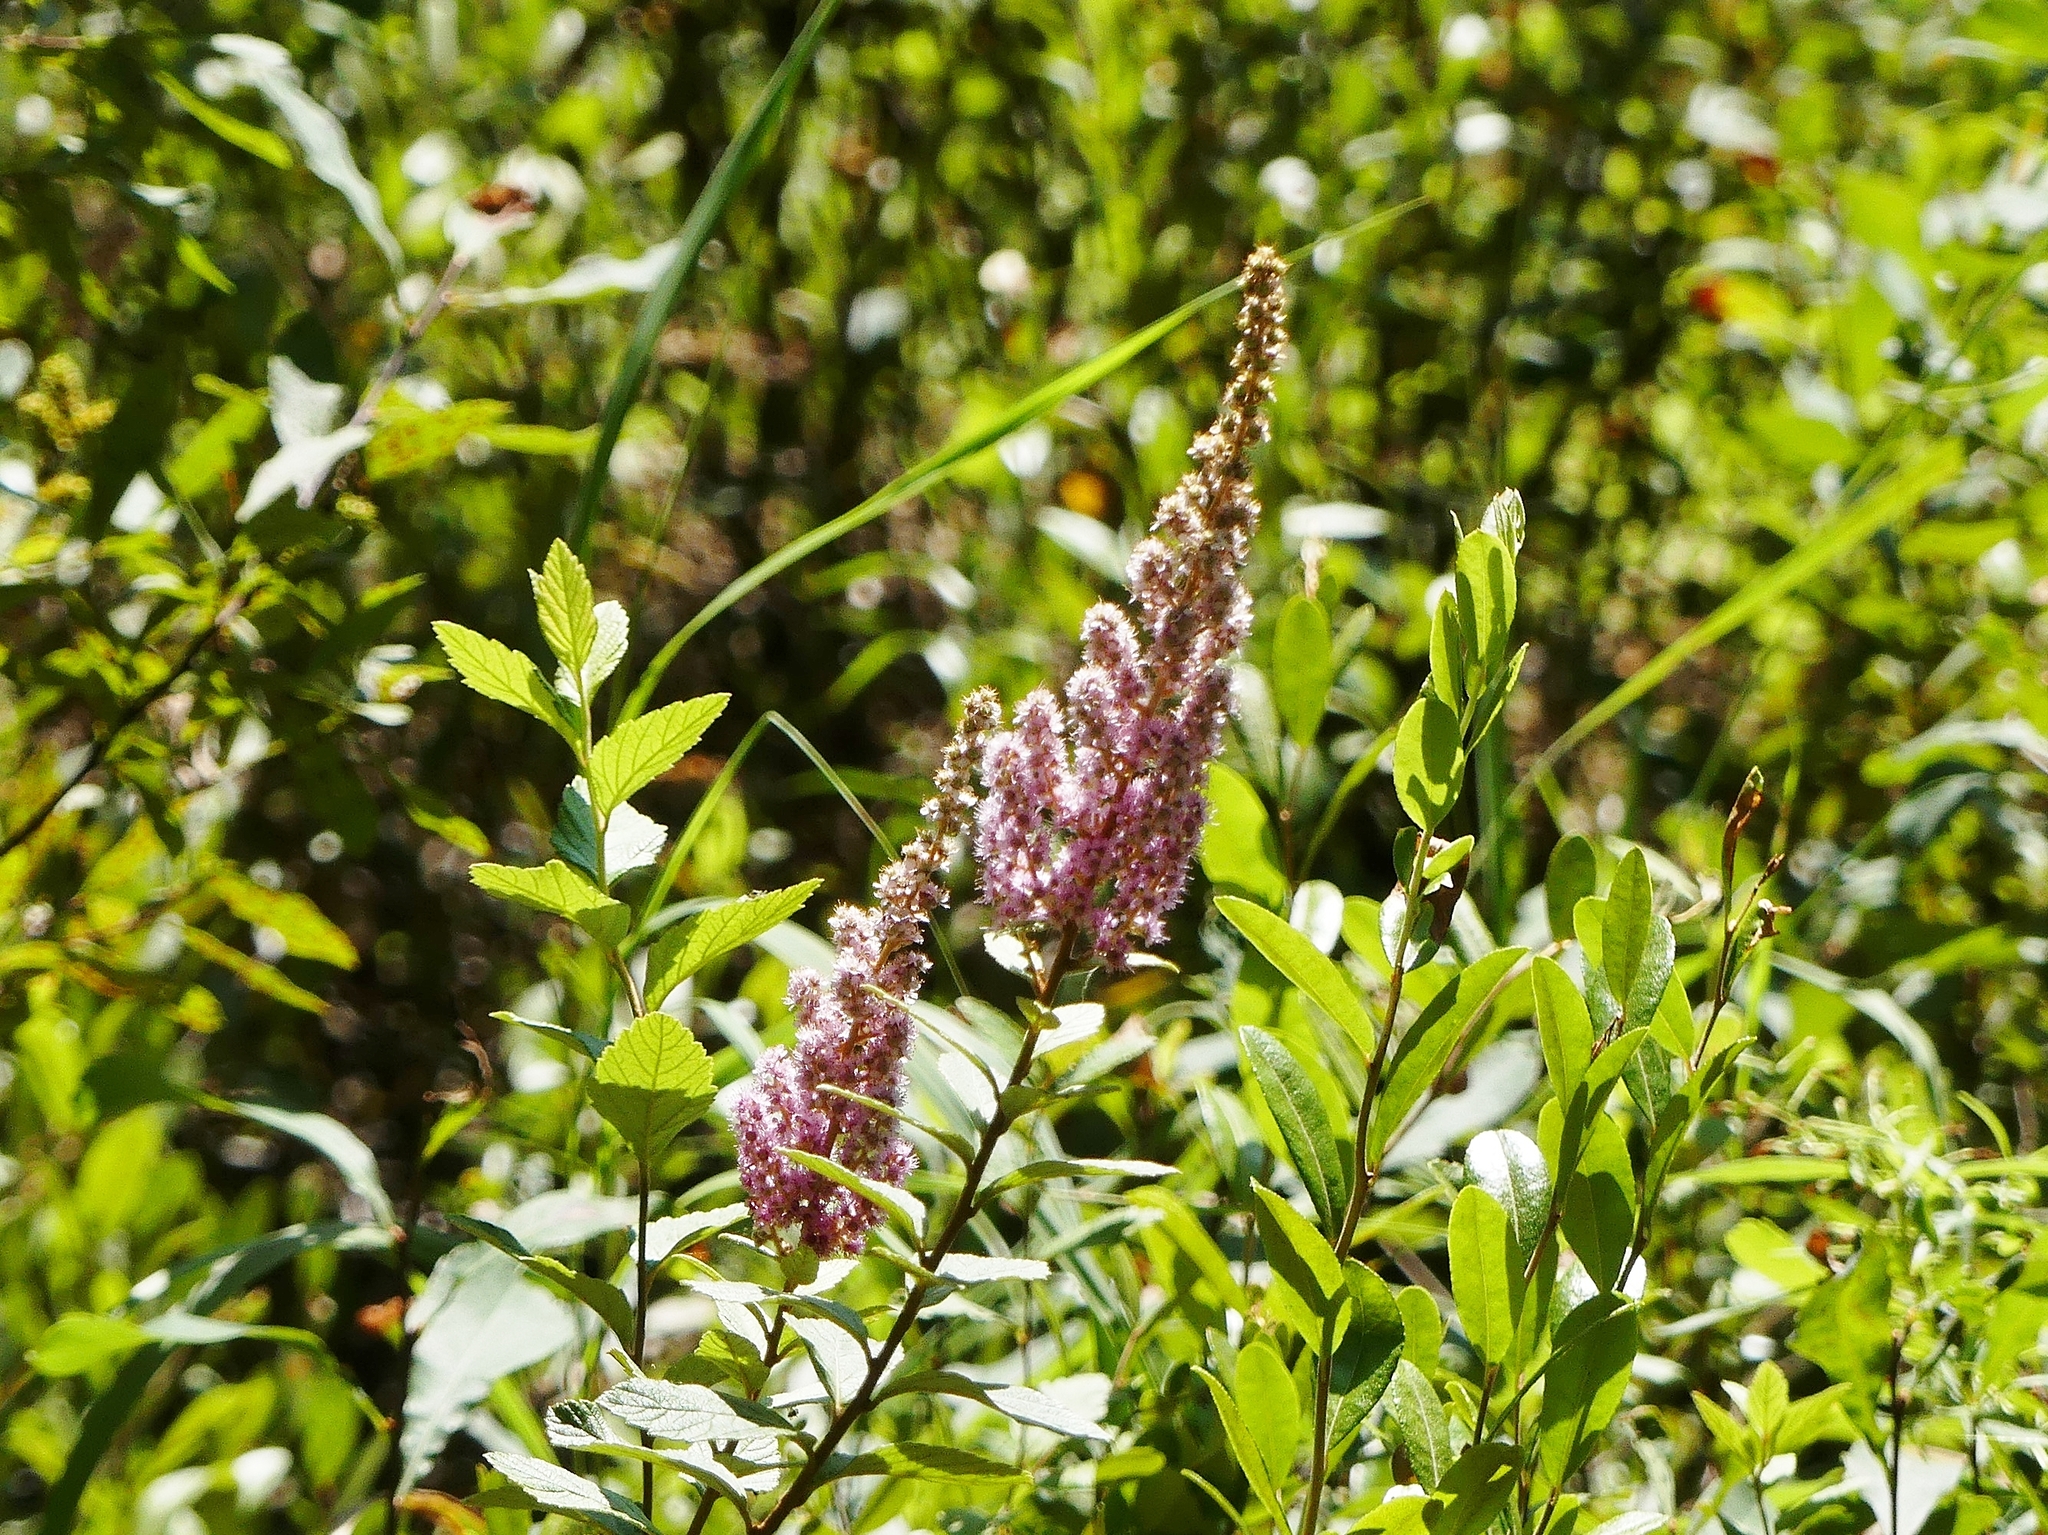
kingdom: Plantae
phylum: Tracheophyta
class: Magnoliopsida
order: Rosales
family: Rosaceae
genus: Spiraea
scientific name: Spiraea tomentosa
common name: Hardhack
